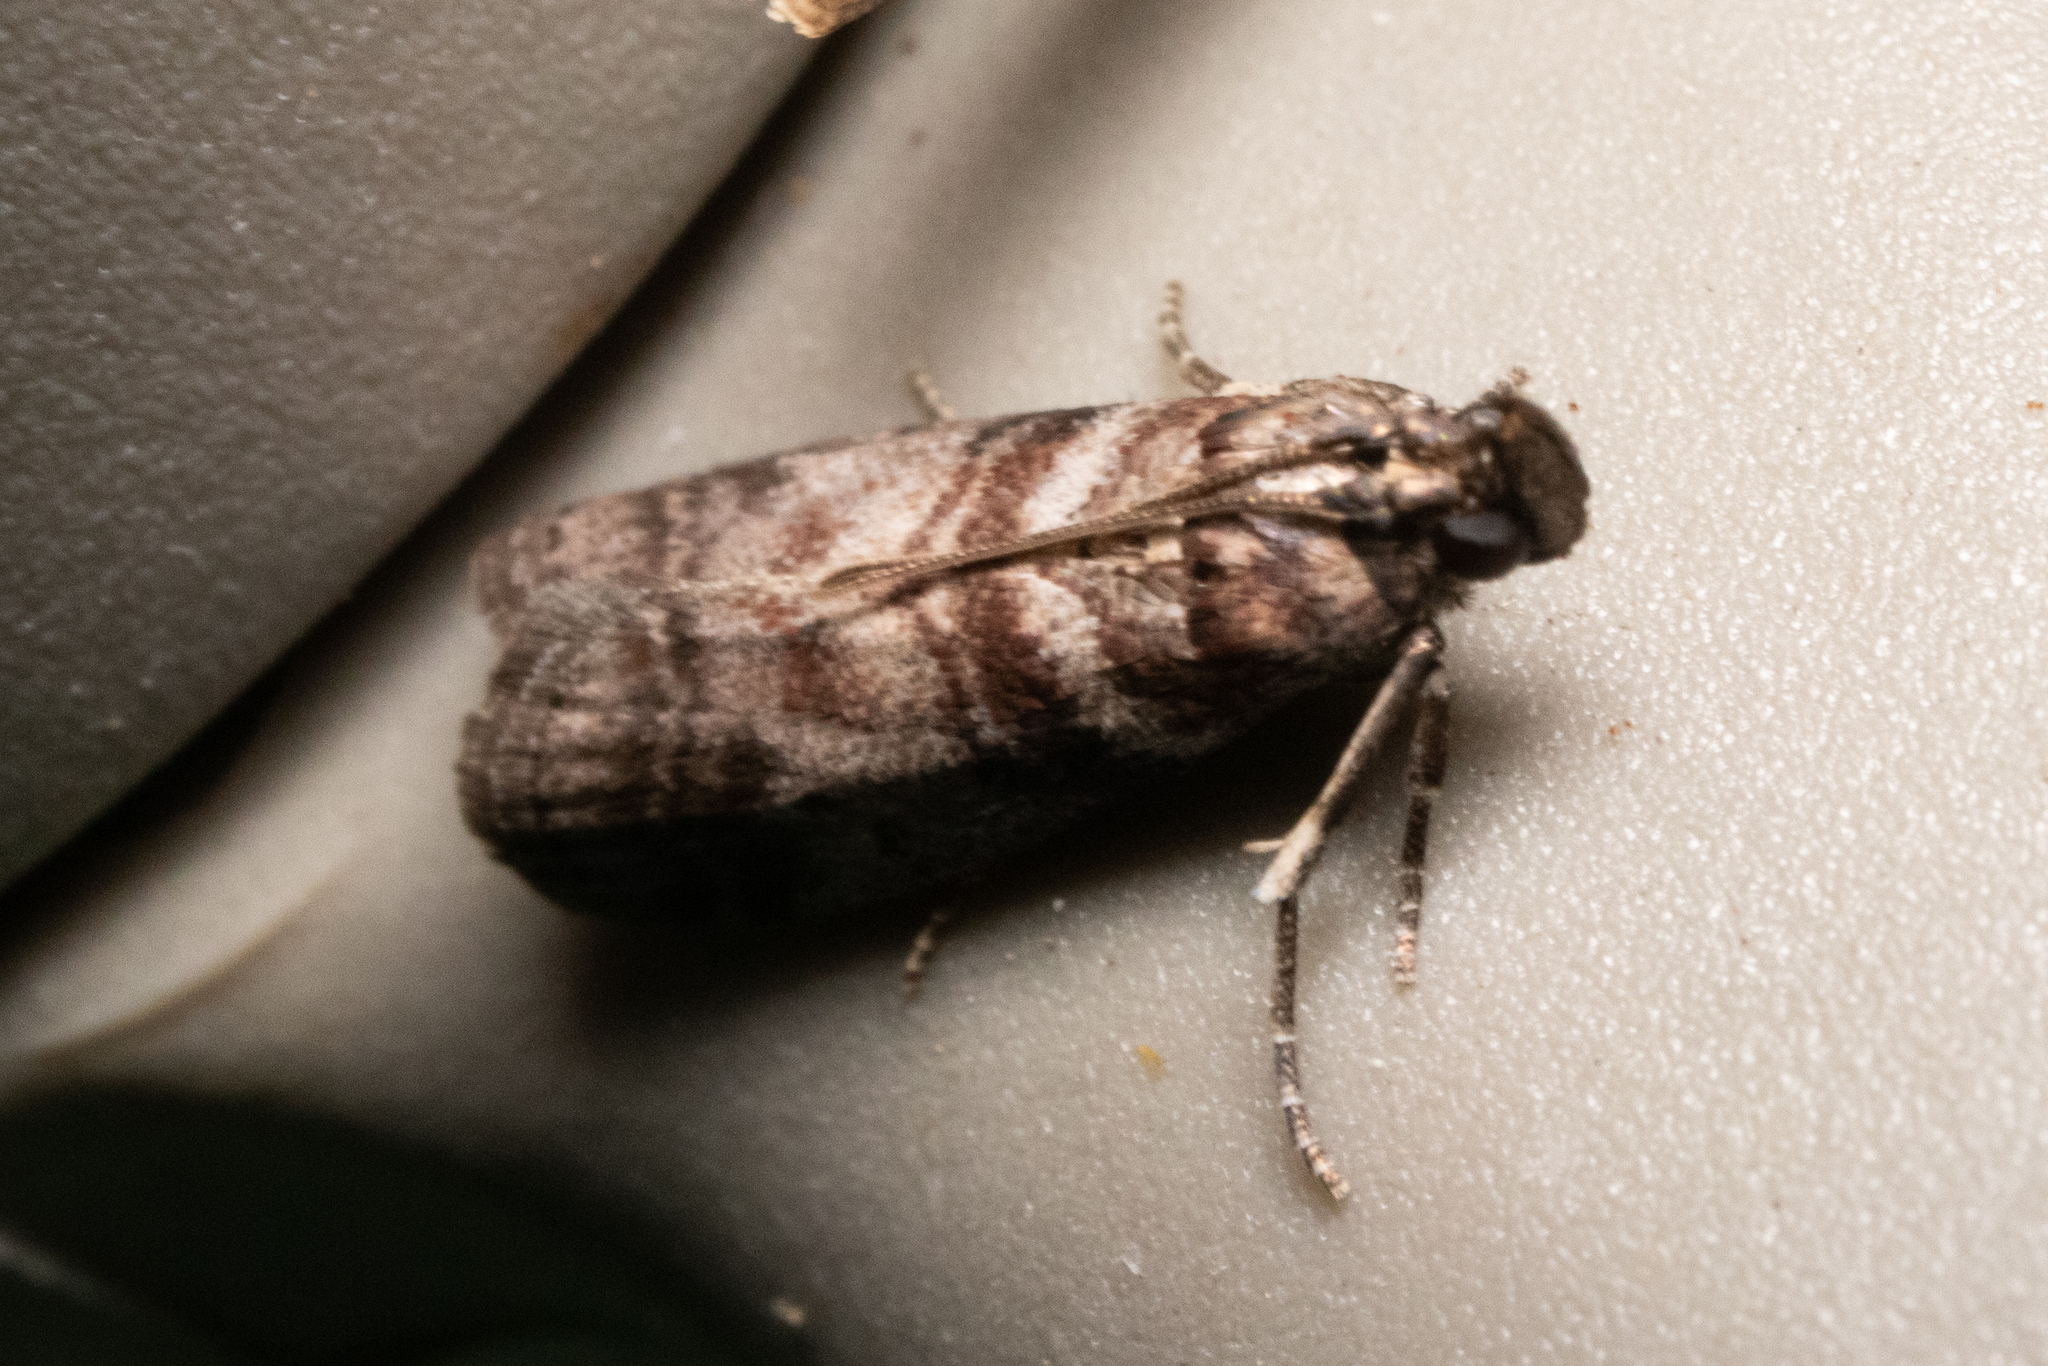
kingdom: Animalia
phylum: Arthropoda
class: Insecta
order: Lepidoptera
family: Pyralidae
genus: Sciota
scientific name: Sciota uvinella
